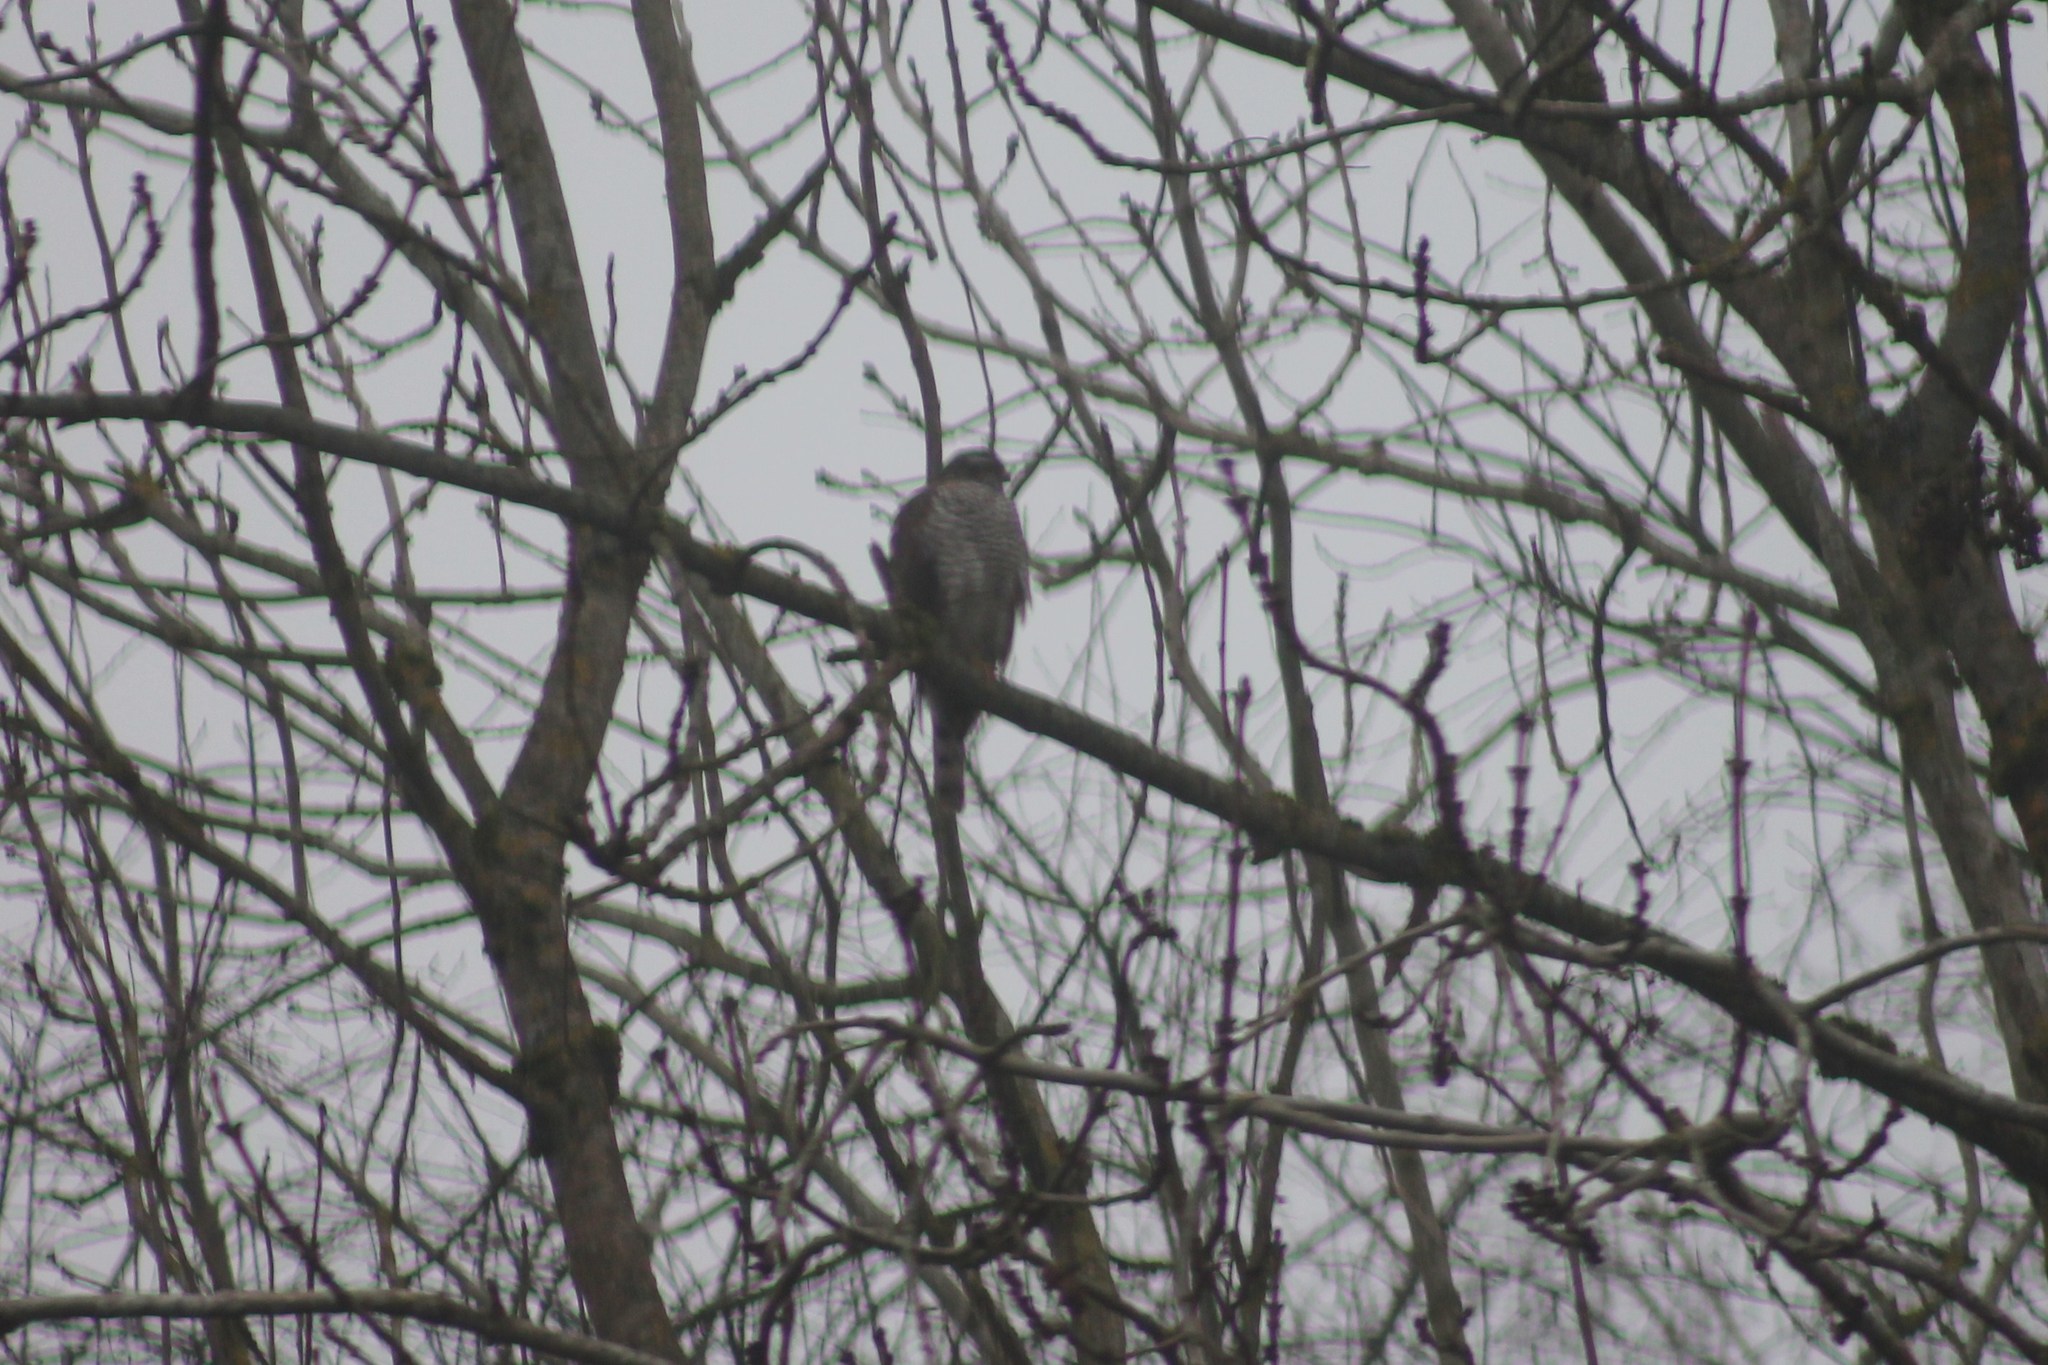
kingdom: Animalia
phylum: Chordata
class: Aves
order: Accipitriformes
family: Accipitridae
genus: Accipiter
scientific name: Accipiter nisus
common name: Eurasian sparrowhawk
